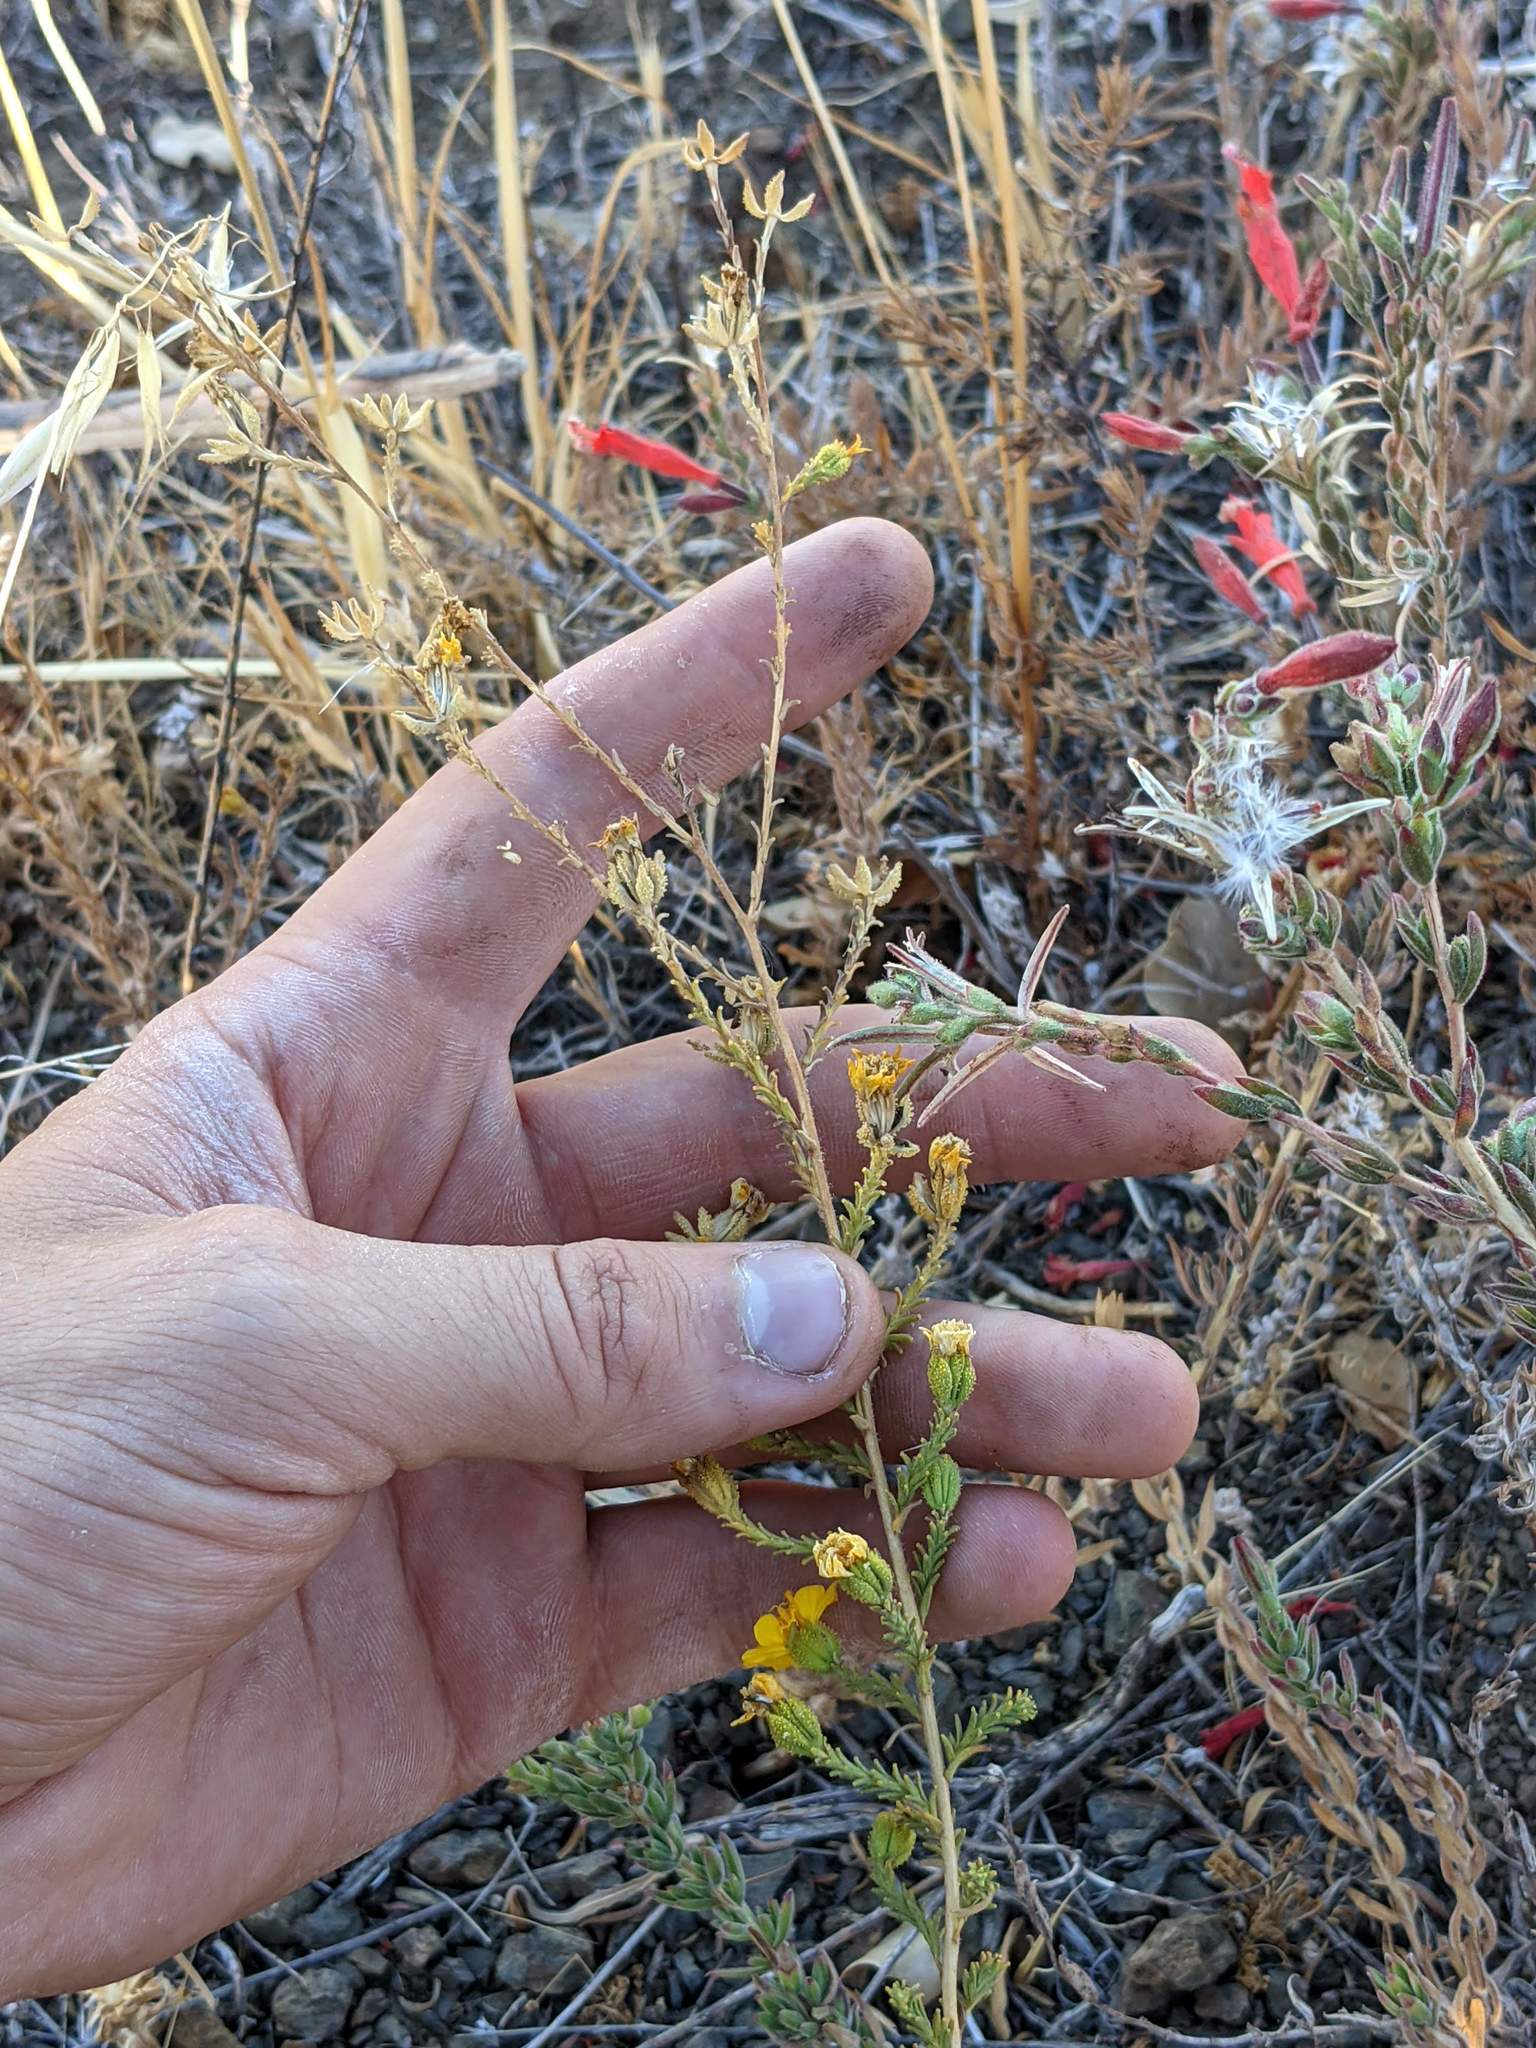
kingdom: Plantae
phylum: Tracheophyta
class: Magnoliopsida
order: Asterales
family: Asteraceae
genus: Holocarpha
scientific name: Holocarpha heermannii
